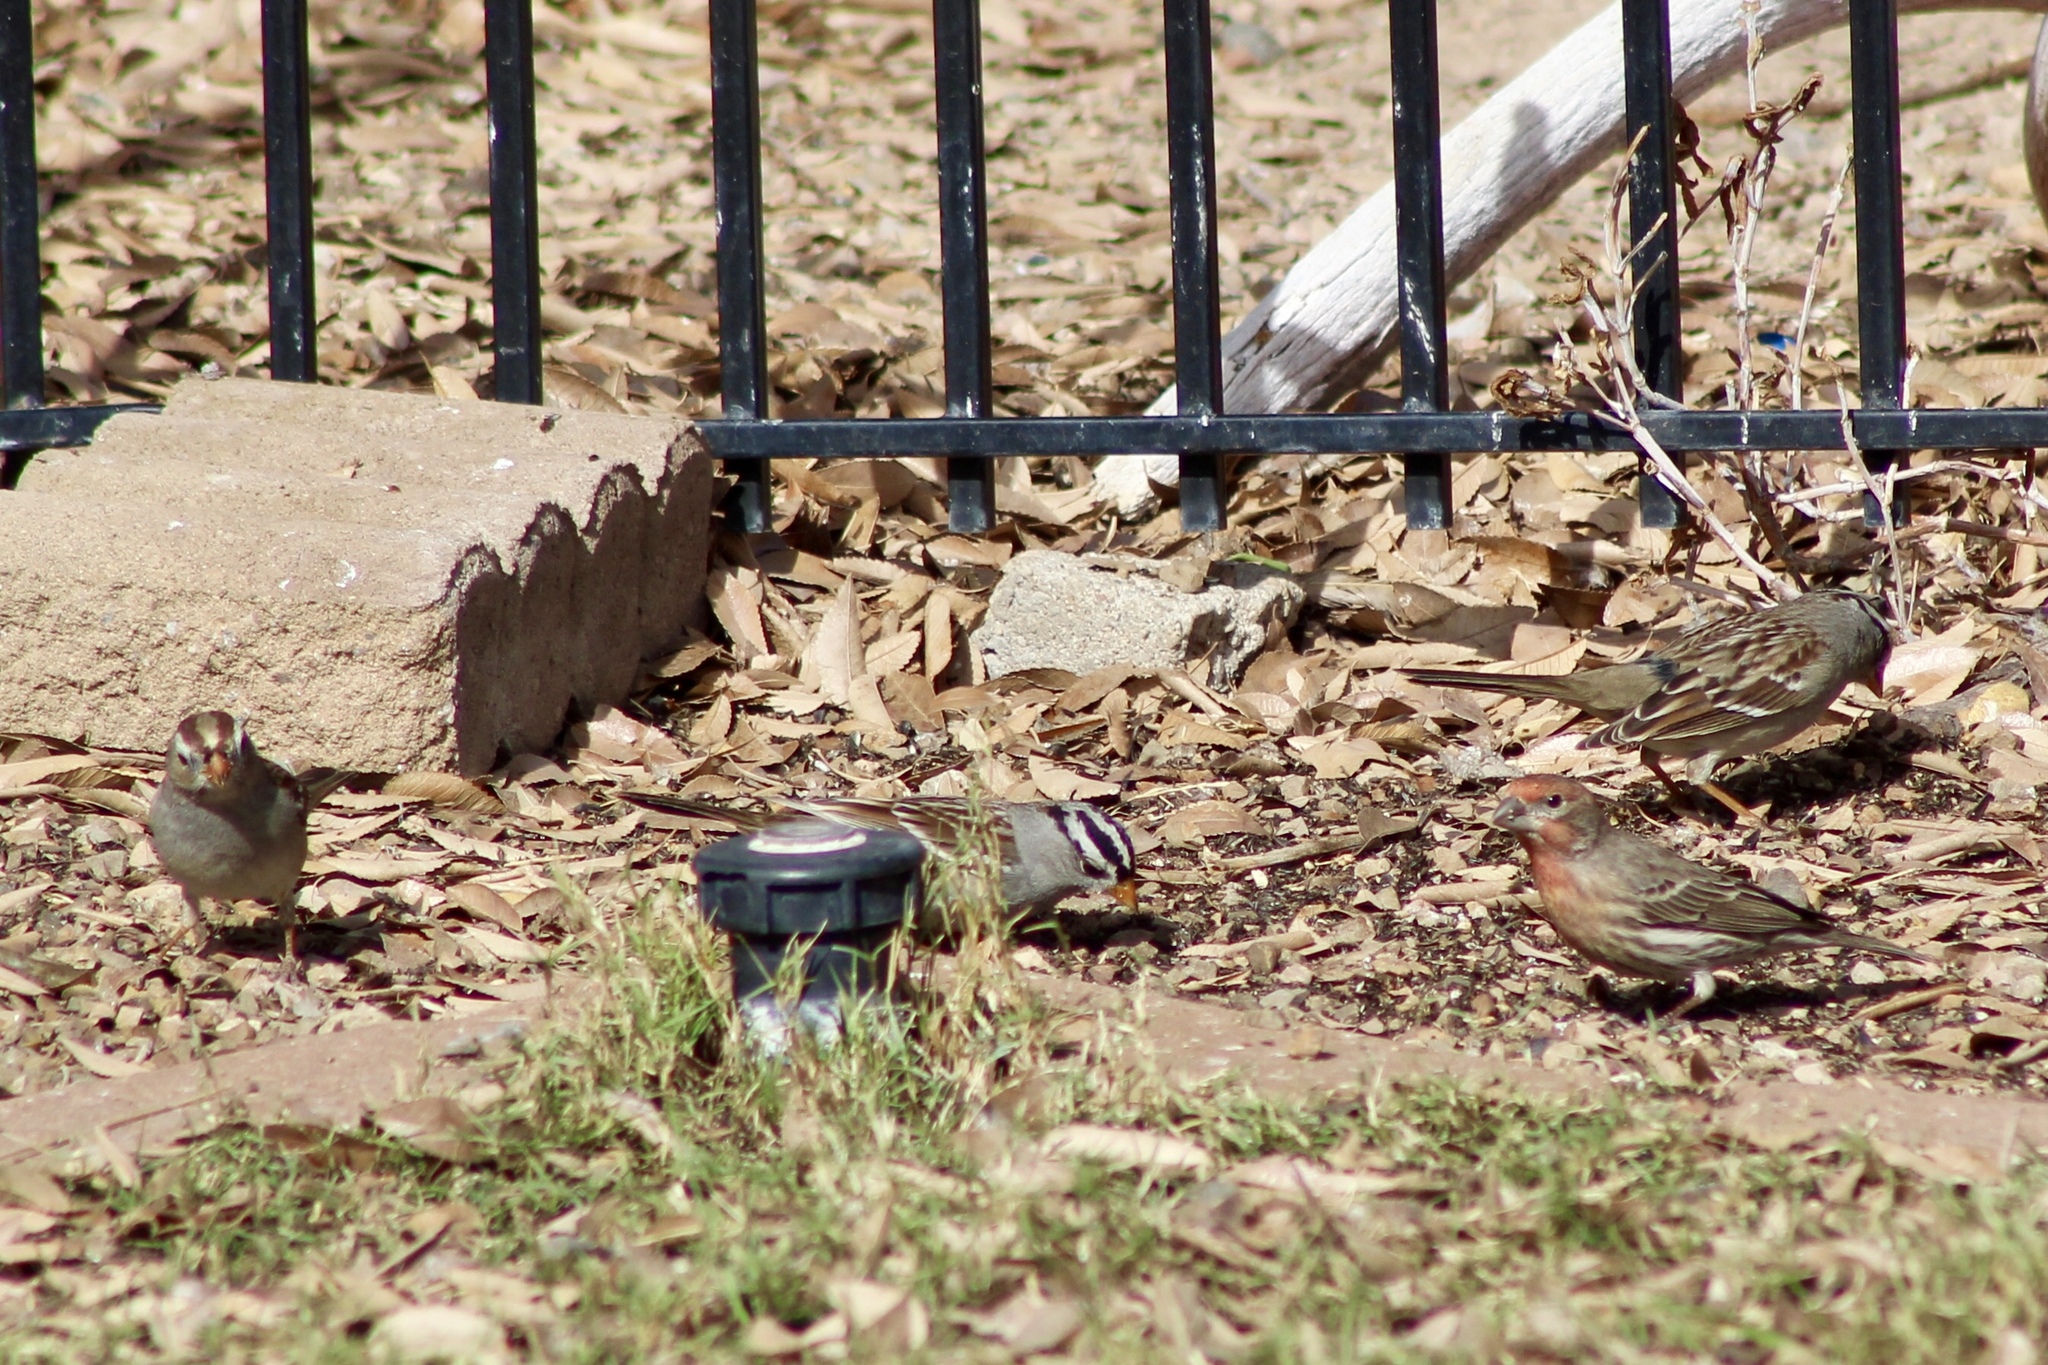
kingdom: Animalia
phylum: Chordata
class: Aves
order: Passeriformes
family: Fringillidae
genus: Haemorhous
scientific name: Haemorhous mexicanus
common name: House finch
